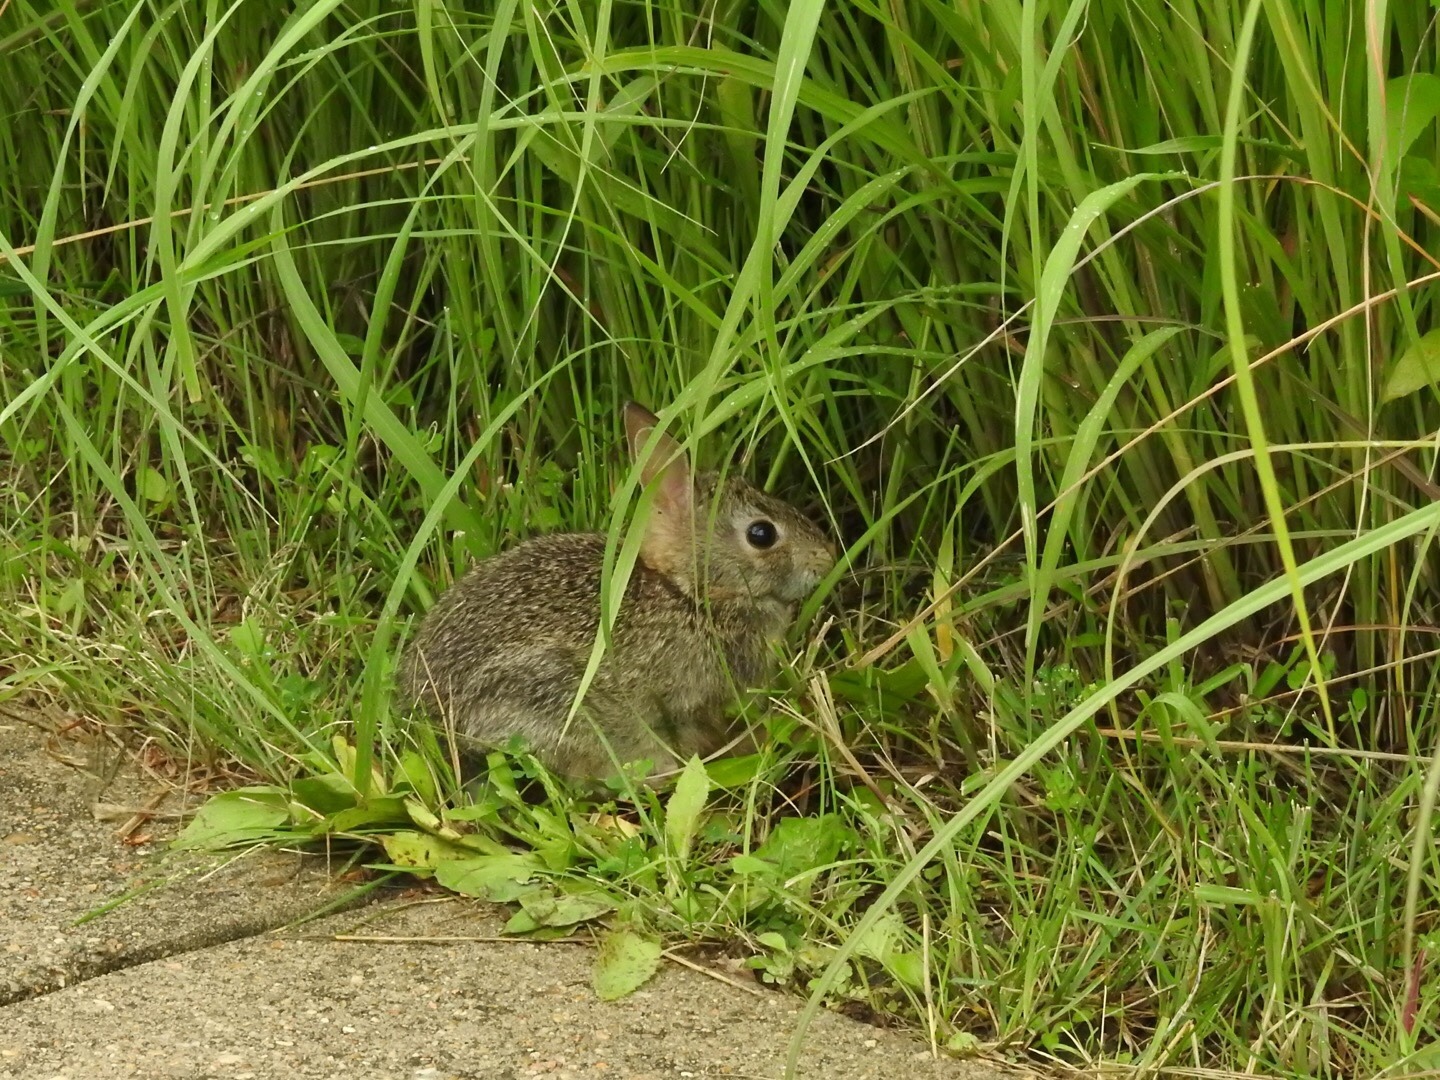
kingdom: Animalia
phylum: Chordata
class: Mammalia
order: Lagomorpha
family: Leporidae
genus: Sylvilagus
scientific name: Sylvilagus floridanus
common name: Eastern cottontail
